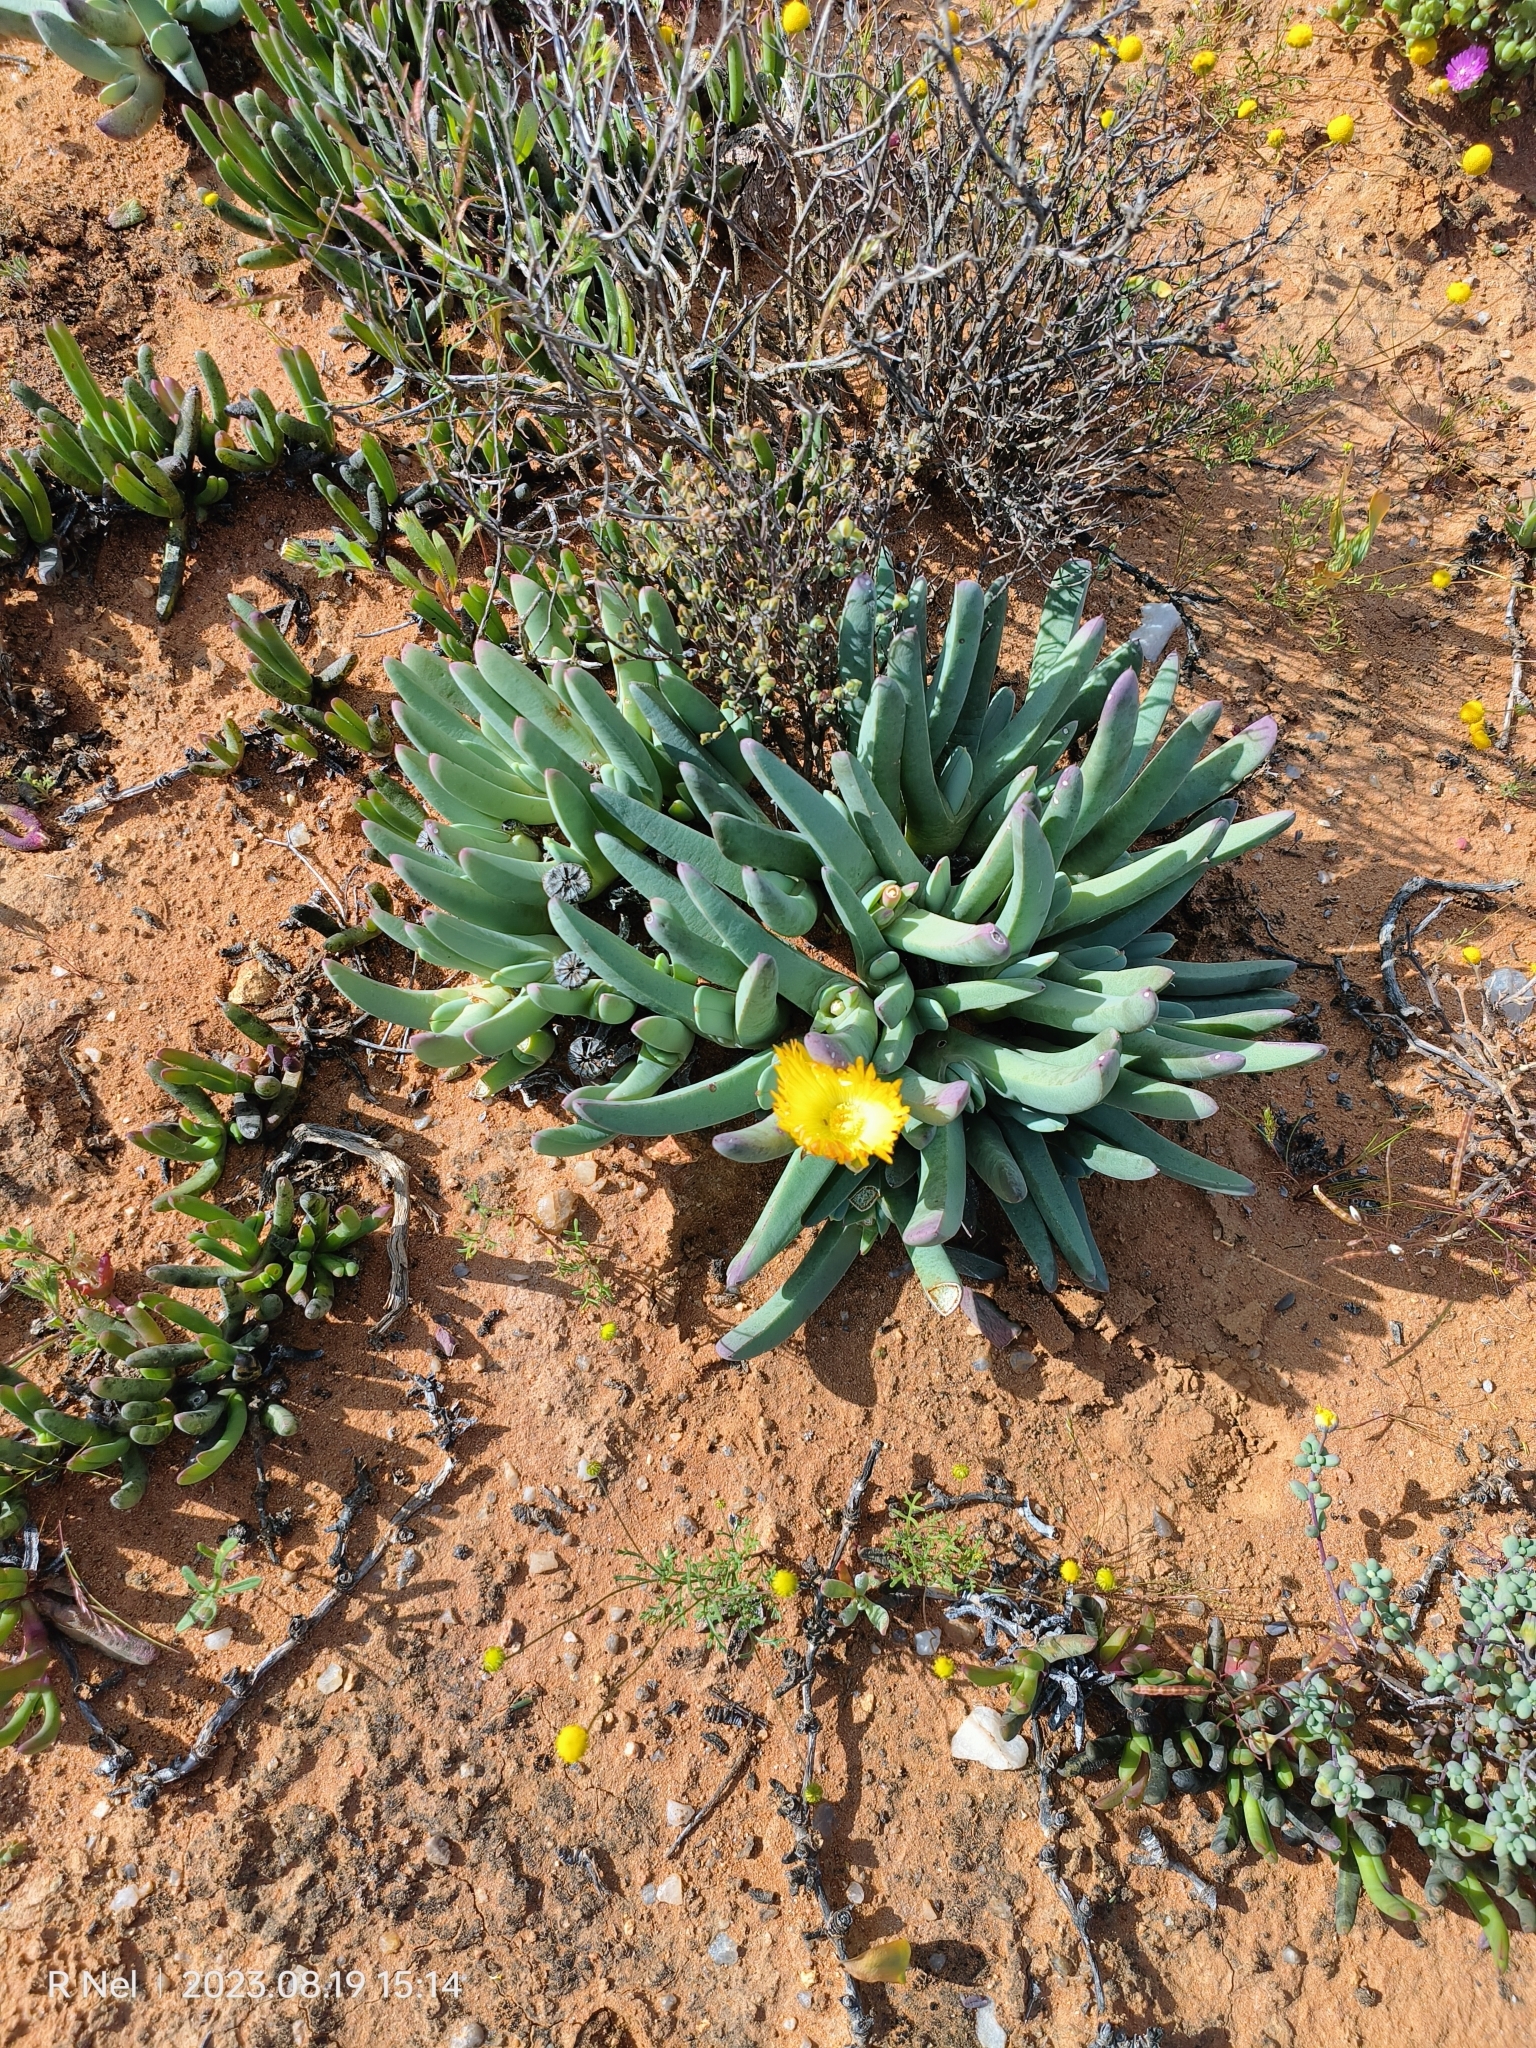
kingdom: Plantae
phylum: Tracheophyta
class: Magnoliopsida
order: Caryophyllales
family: Aizoaceae
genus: Cheiridopsis
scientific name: Cheiridopsis robusta
